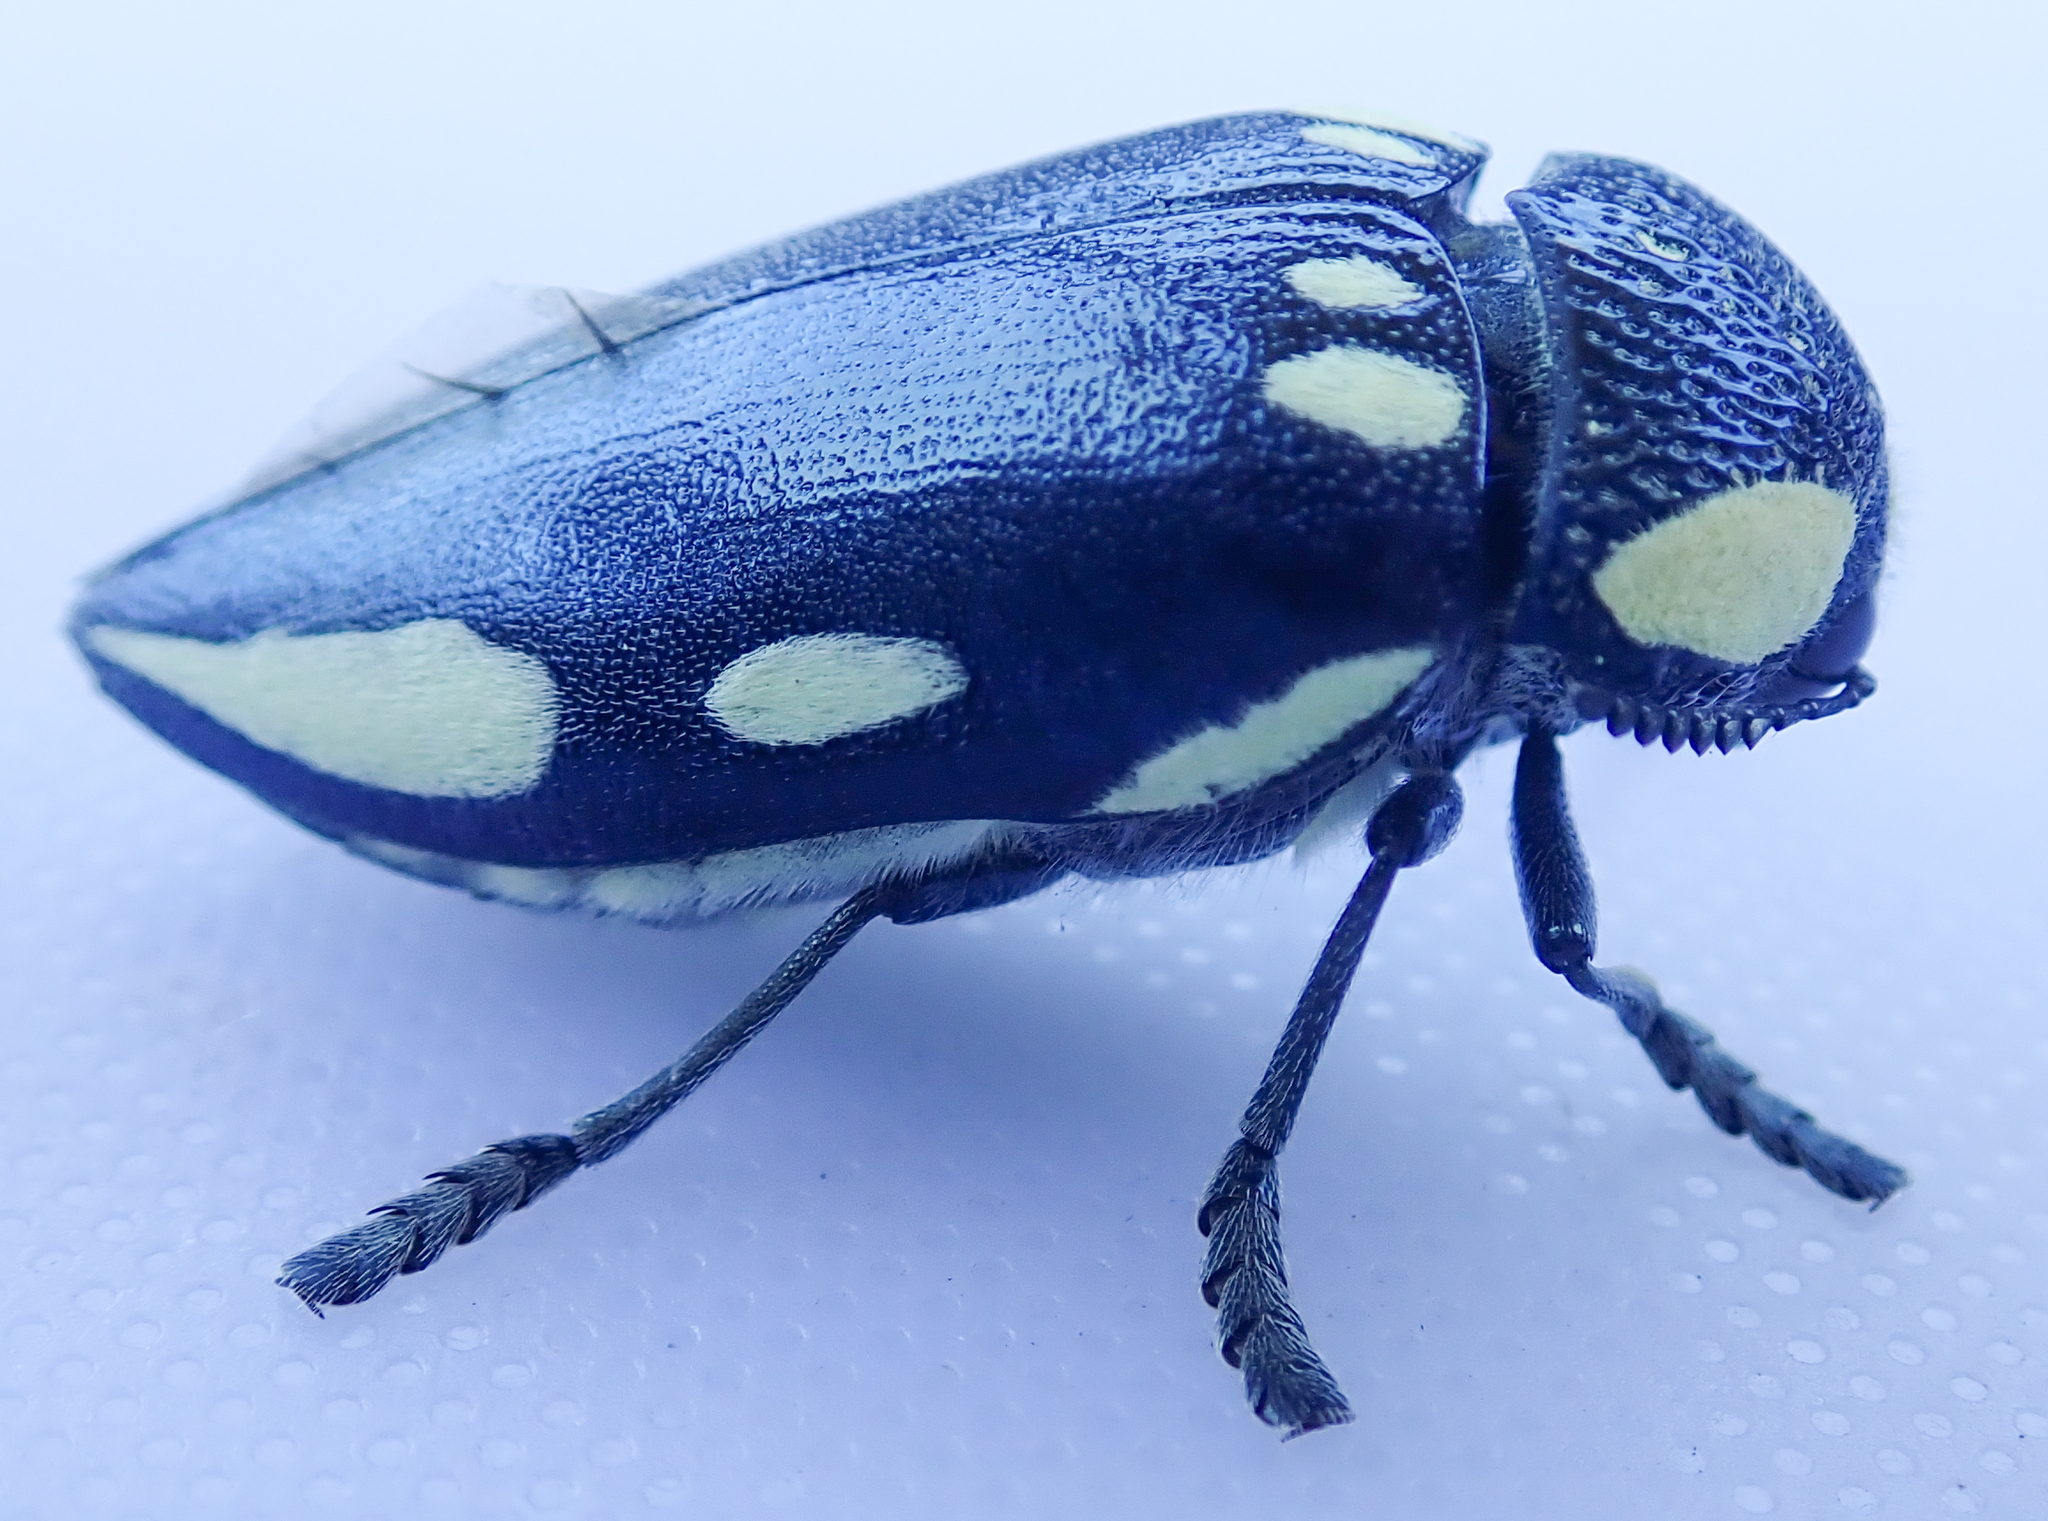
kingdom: Animalia
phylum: Arthropoda
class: Insecta
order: Coleoptera
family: Buprestidae
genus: Sternocera
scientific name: Sternocera orissa
